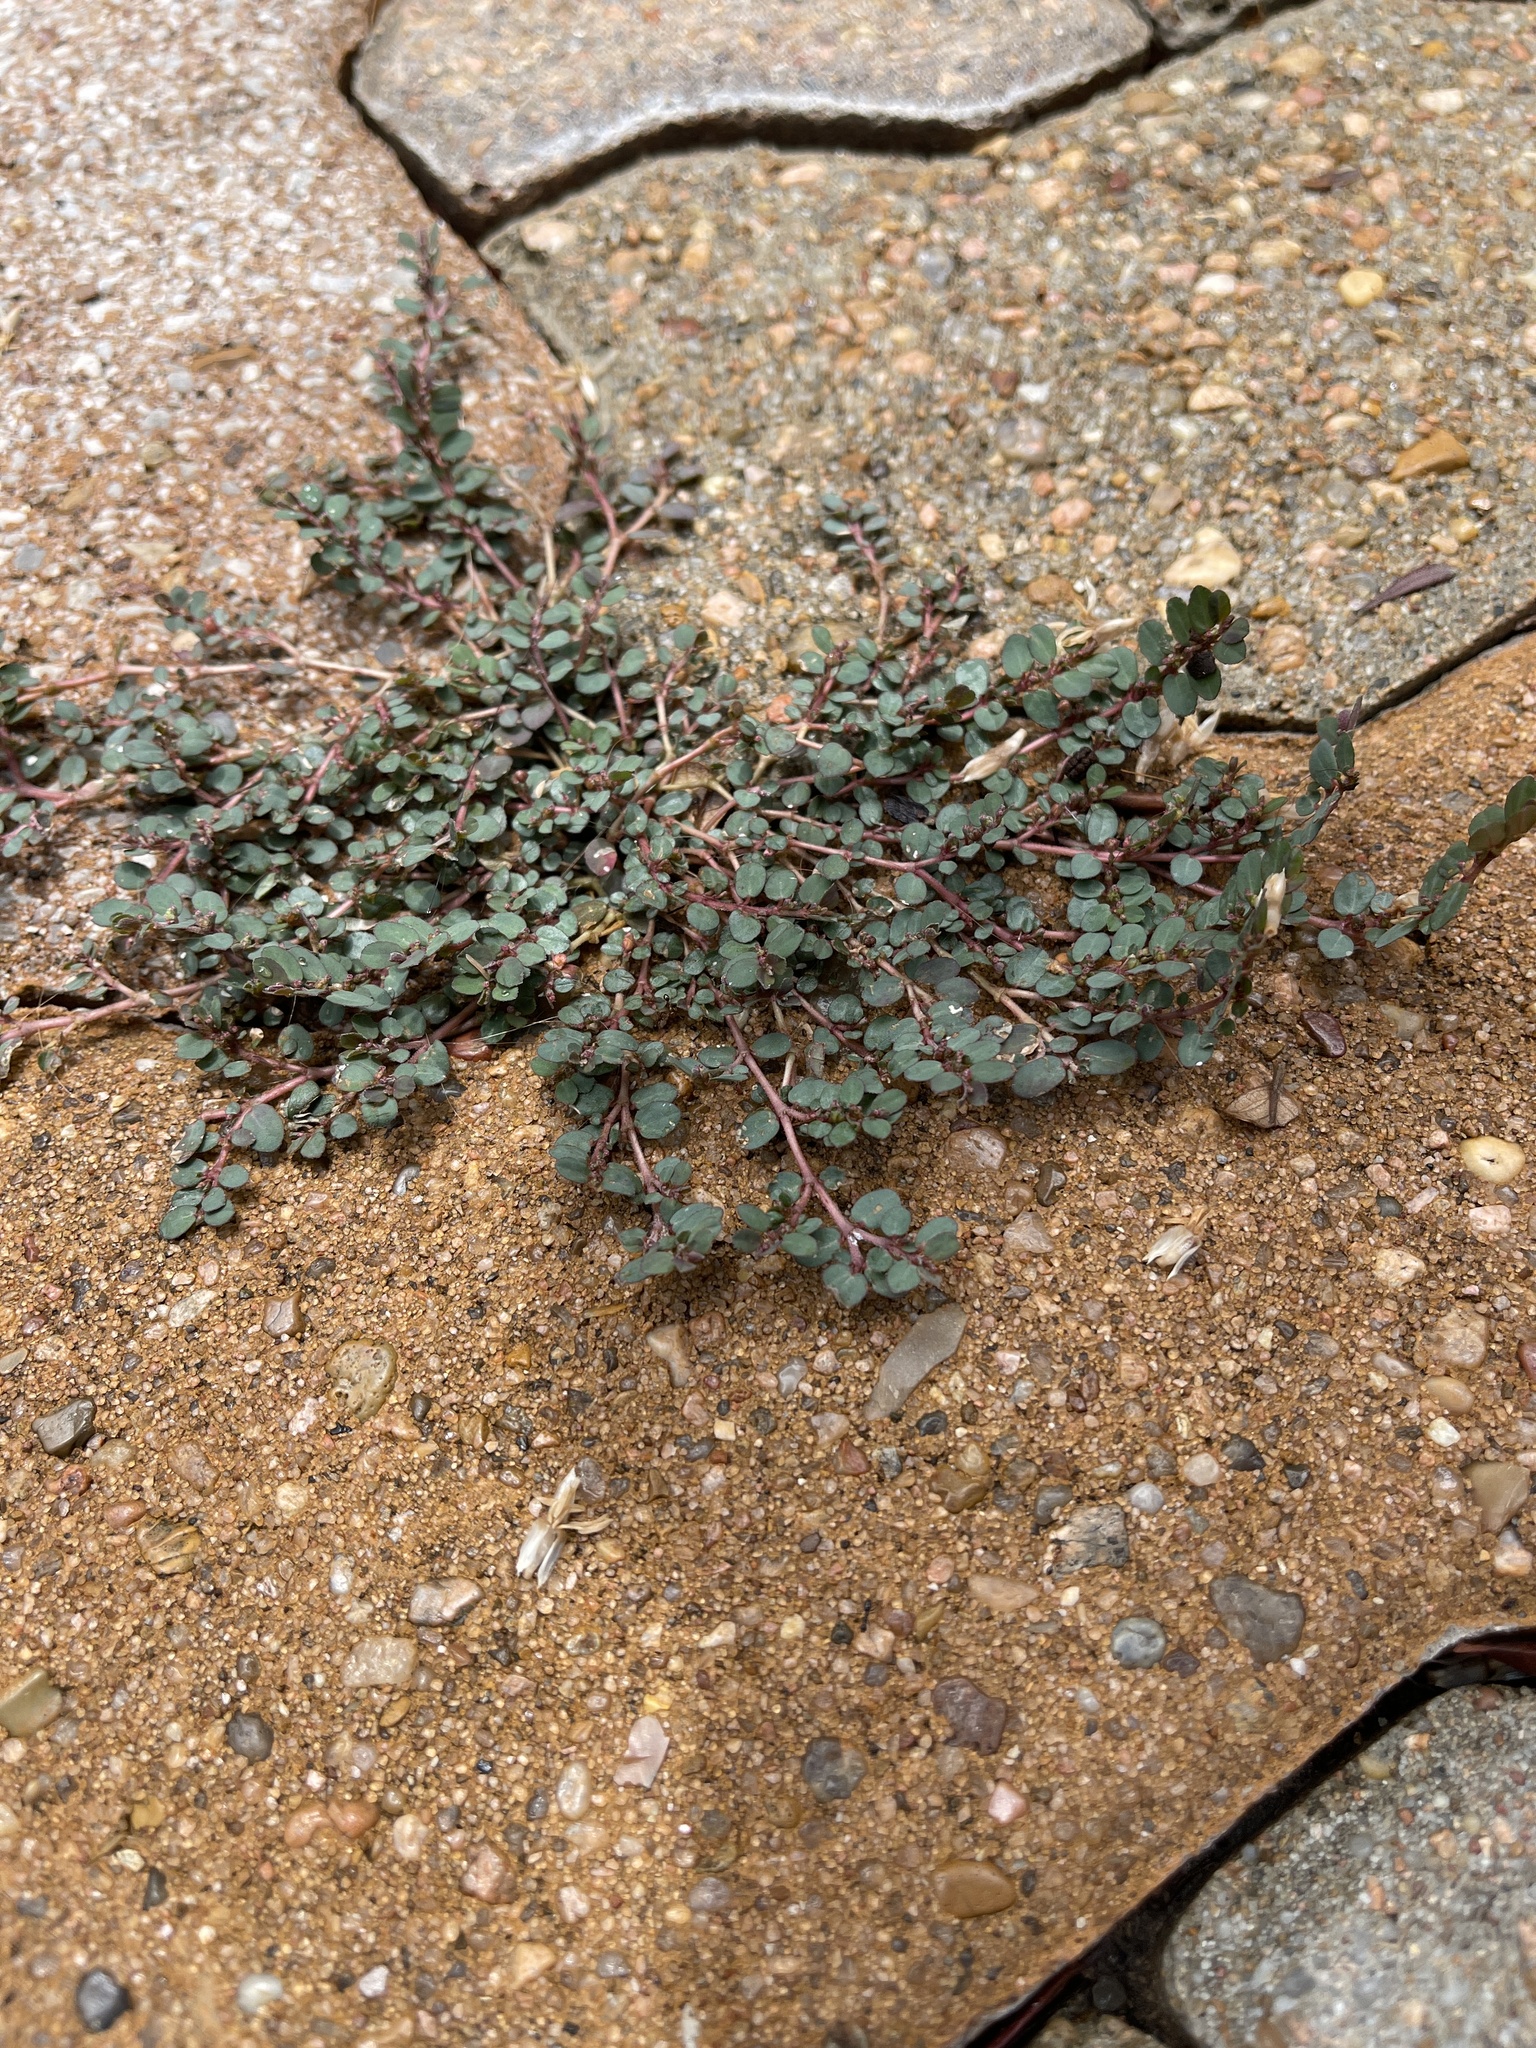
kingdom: Plantae
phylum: Tracheophyta
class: Magnoliopsida
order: Malpighiales
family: Euphorbiaceae
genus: Euphorbia
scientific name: Euphorbia prostrata
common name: Prostrate sandmat
